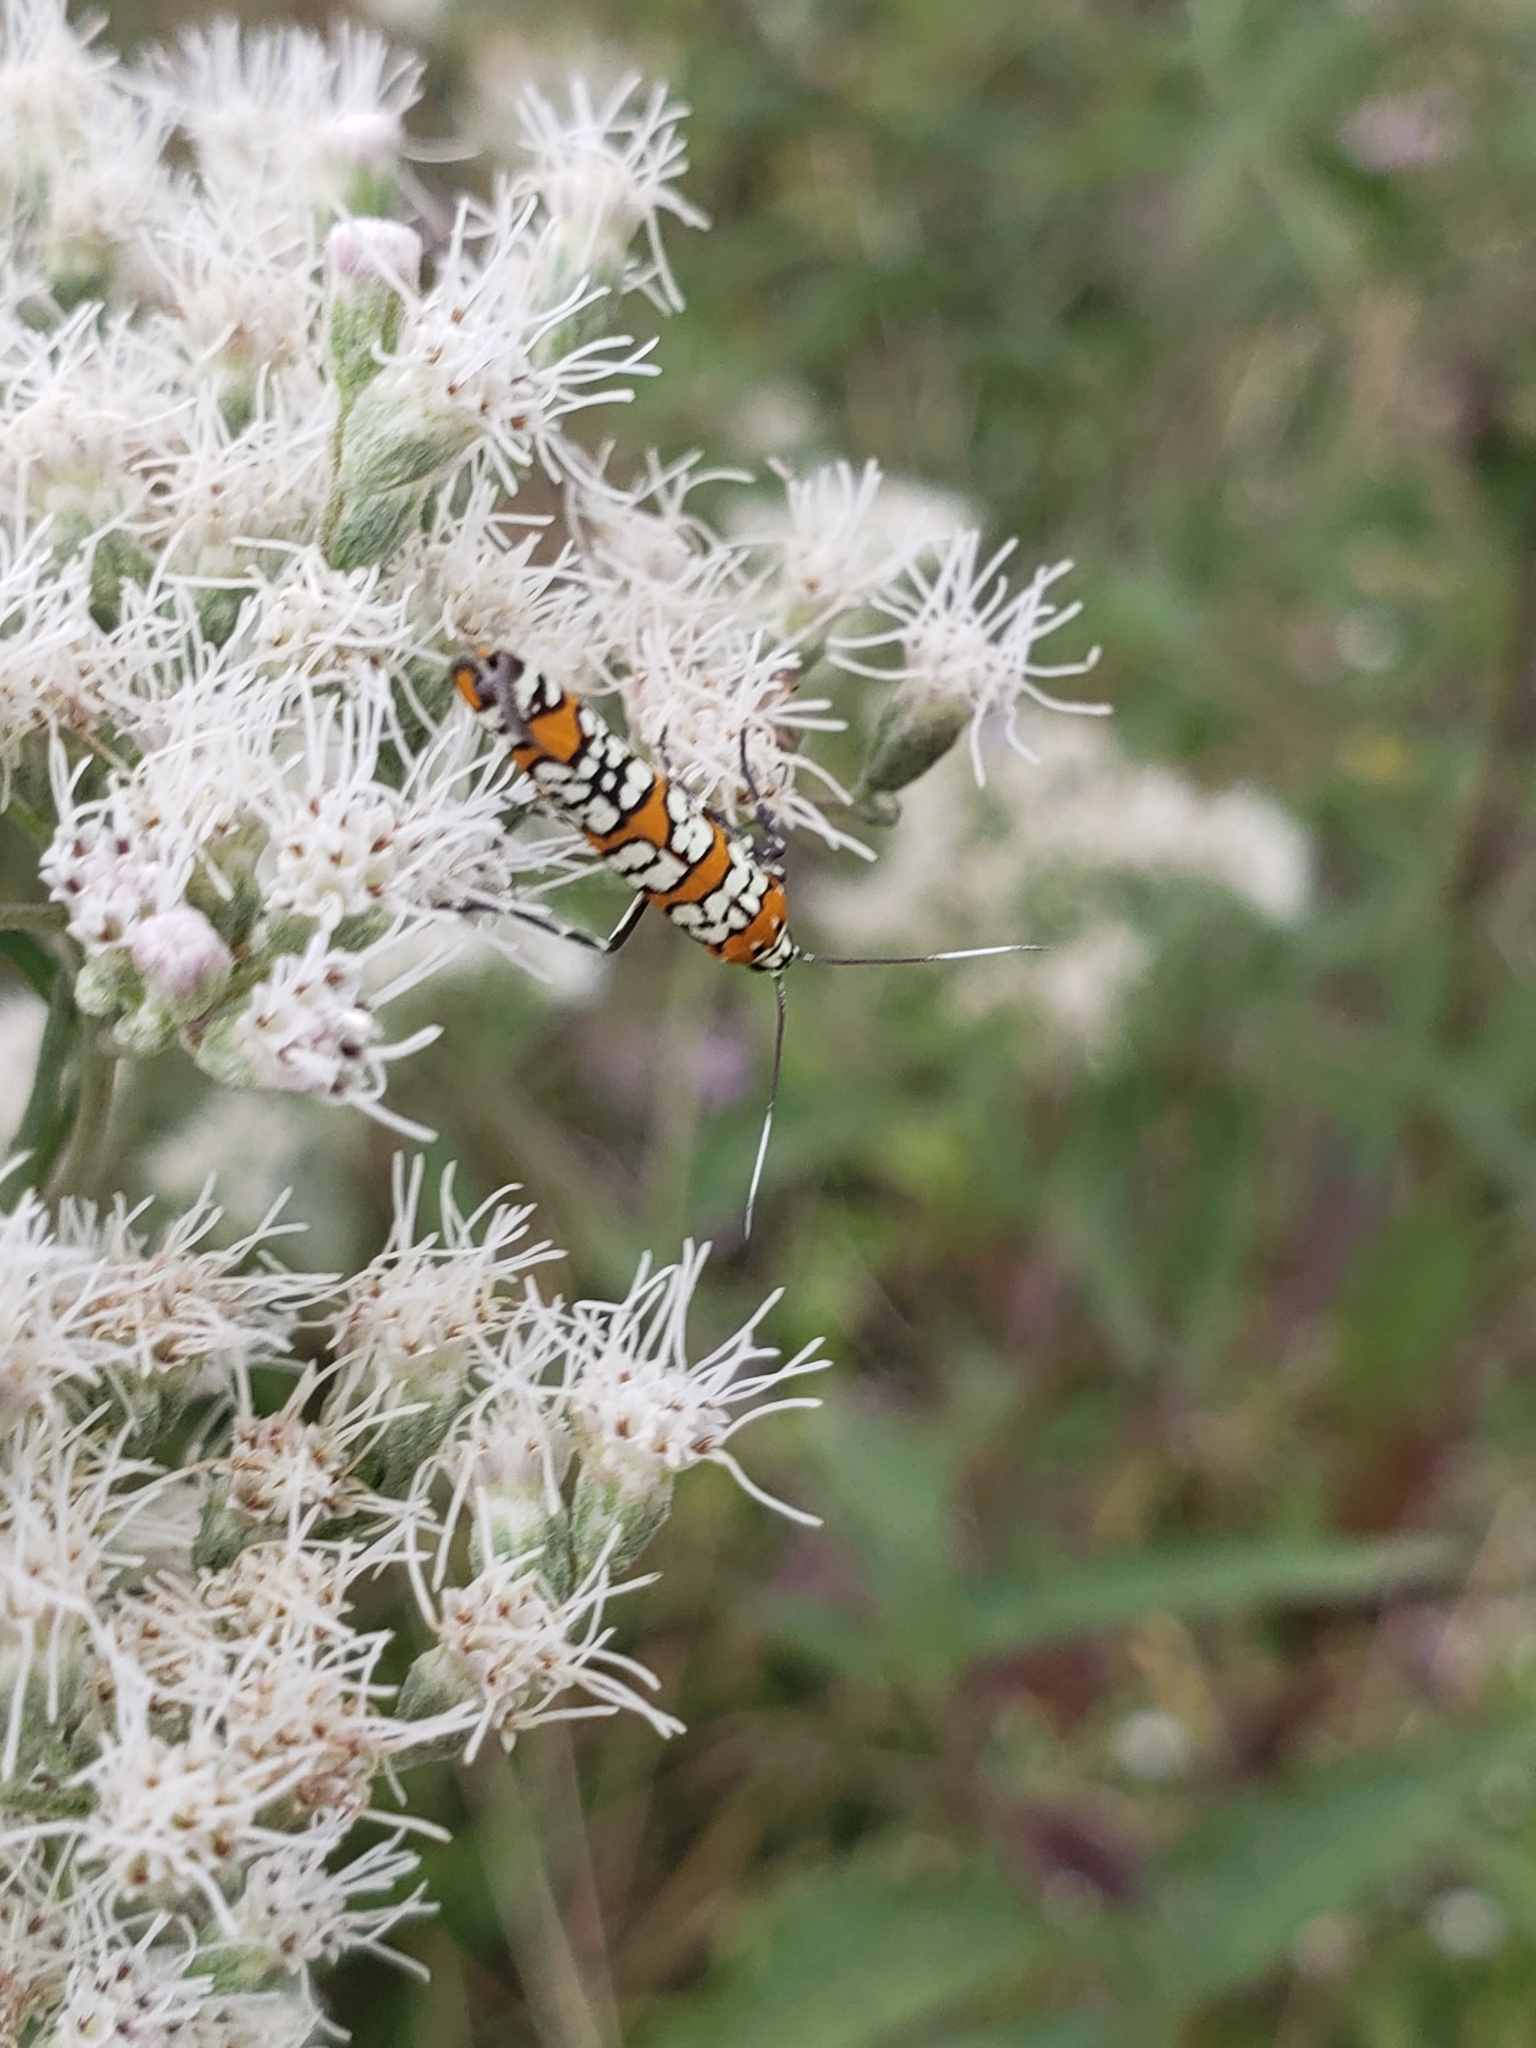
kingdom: Animalia
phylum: Arthropoda
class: Insecta
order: Lepidoptera
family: Attevidae
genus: Atteva
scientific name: Atteva punctella
